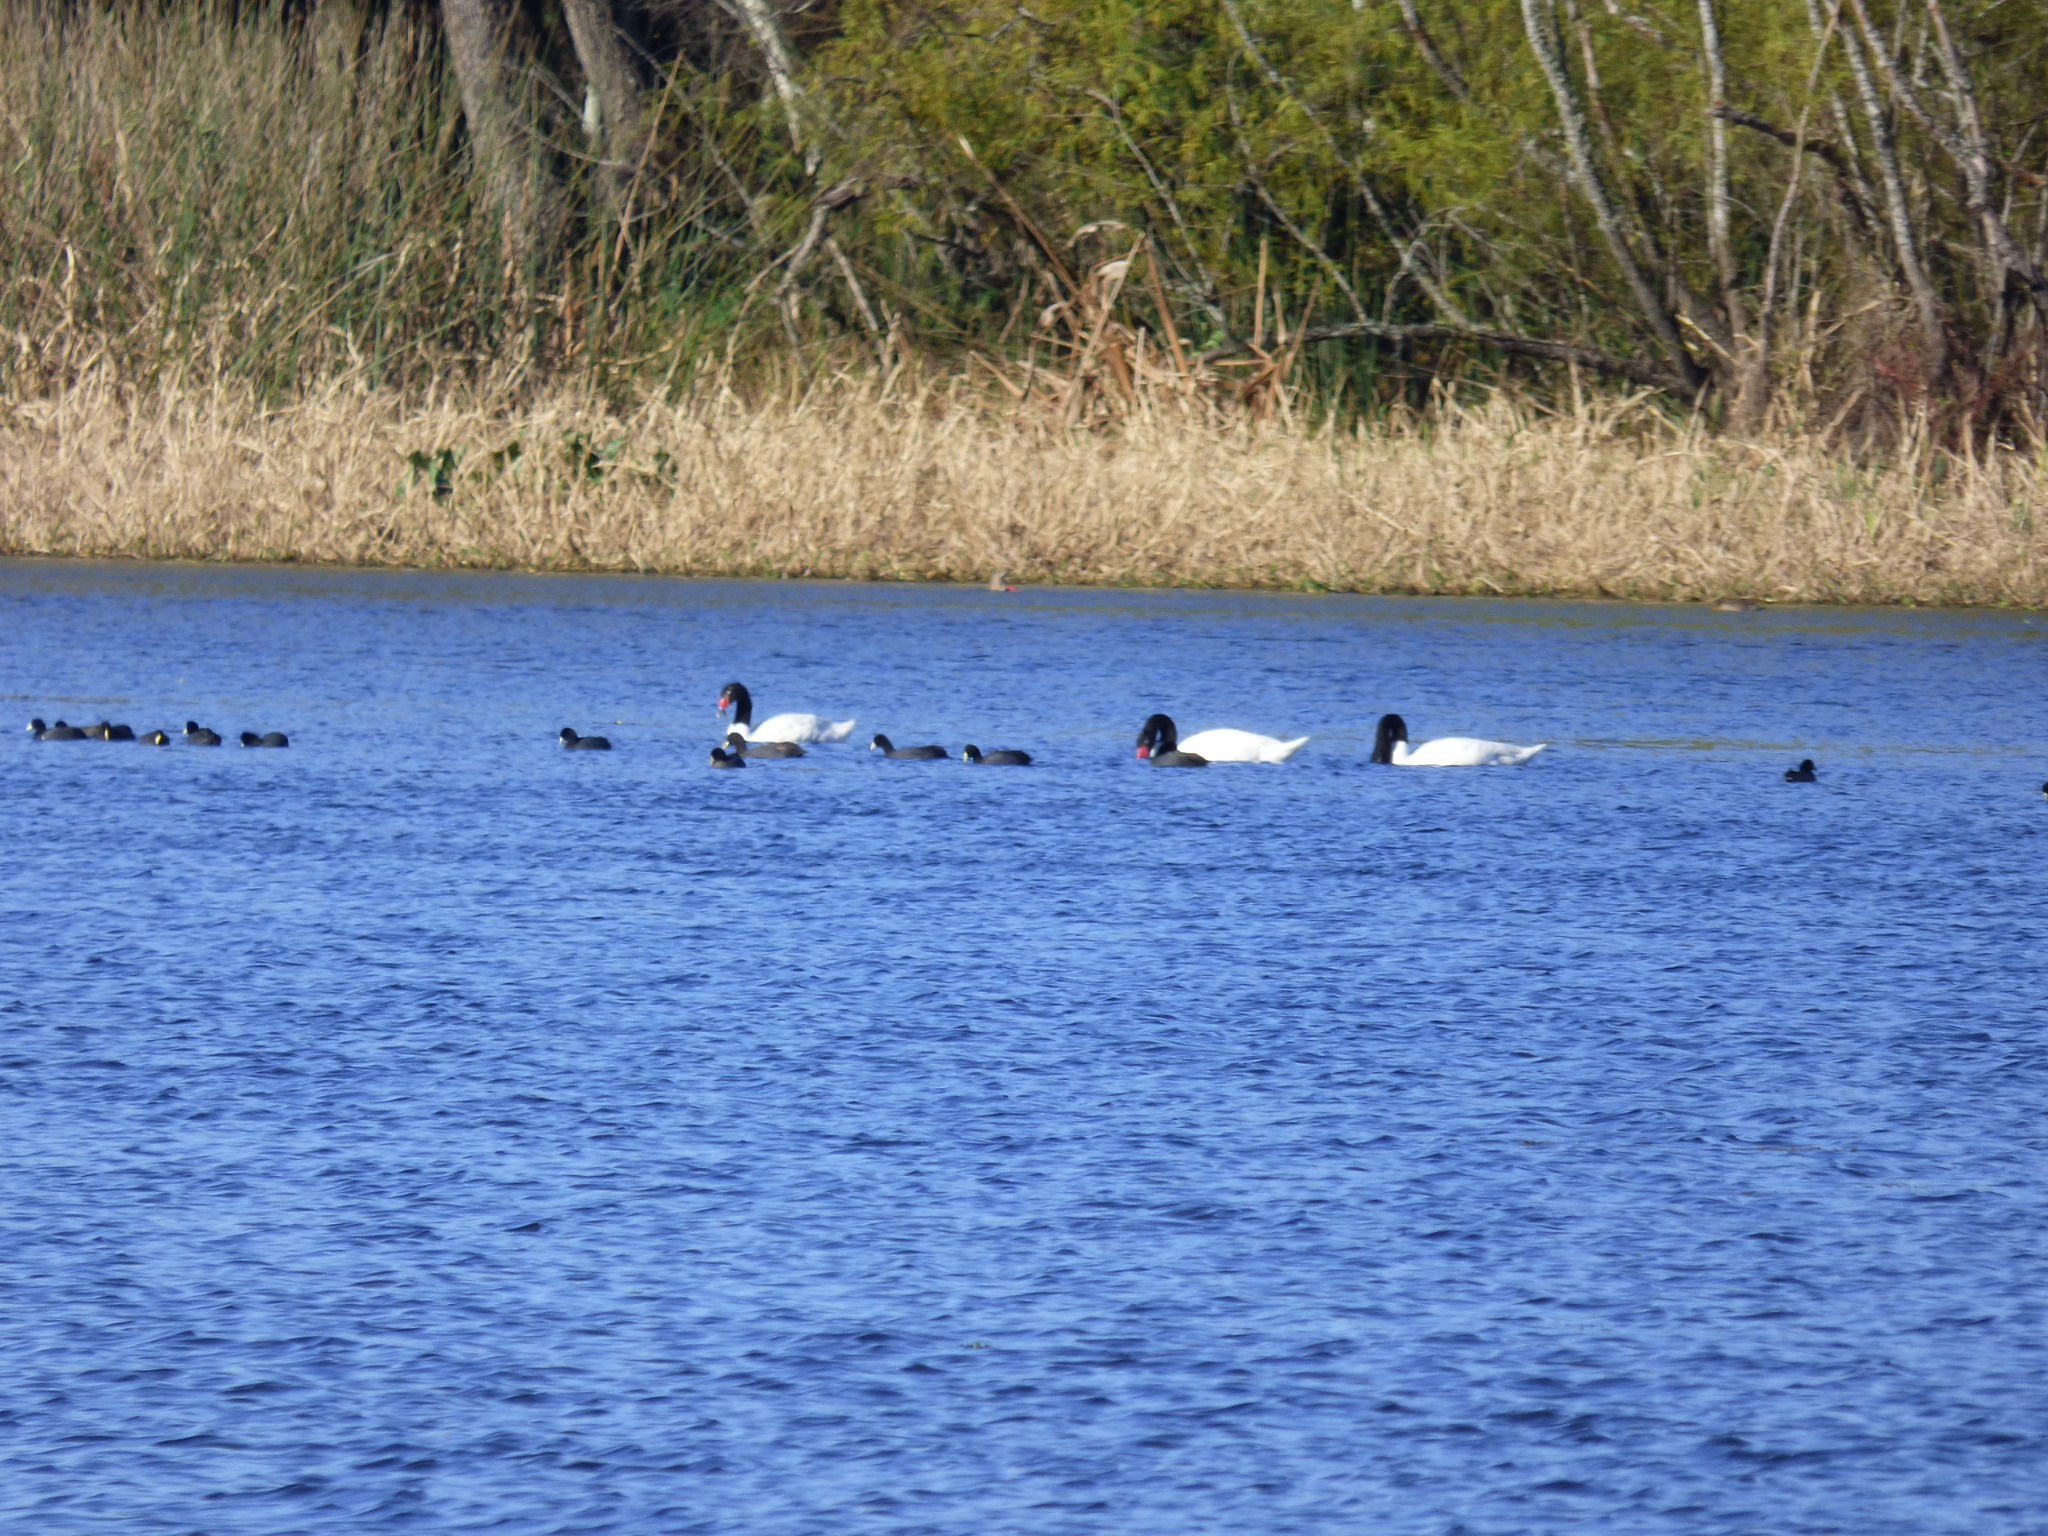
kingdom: Animalia
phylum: Chordata
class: Aves
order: Anseriformes
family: Anatidae
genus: Cygnus
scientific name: Cygnus melancoryphus
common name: Black-necked swan
